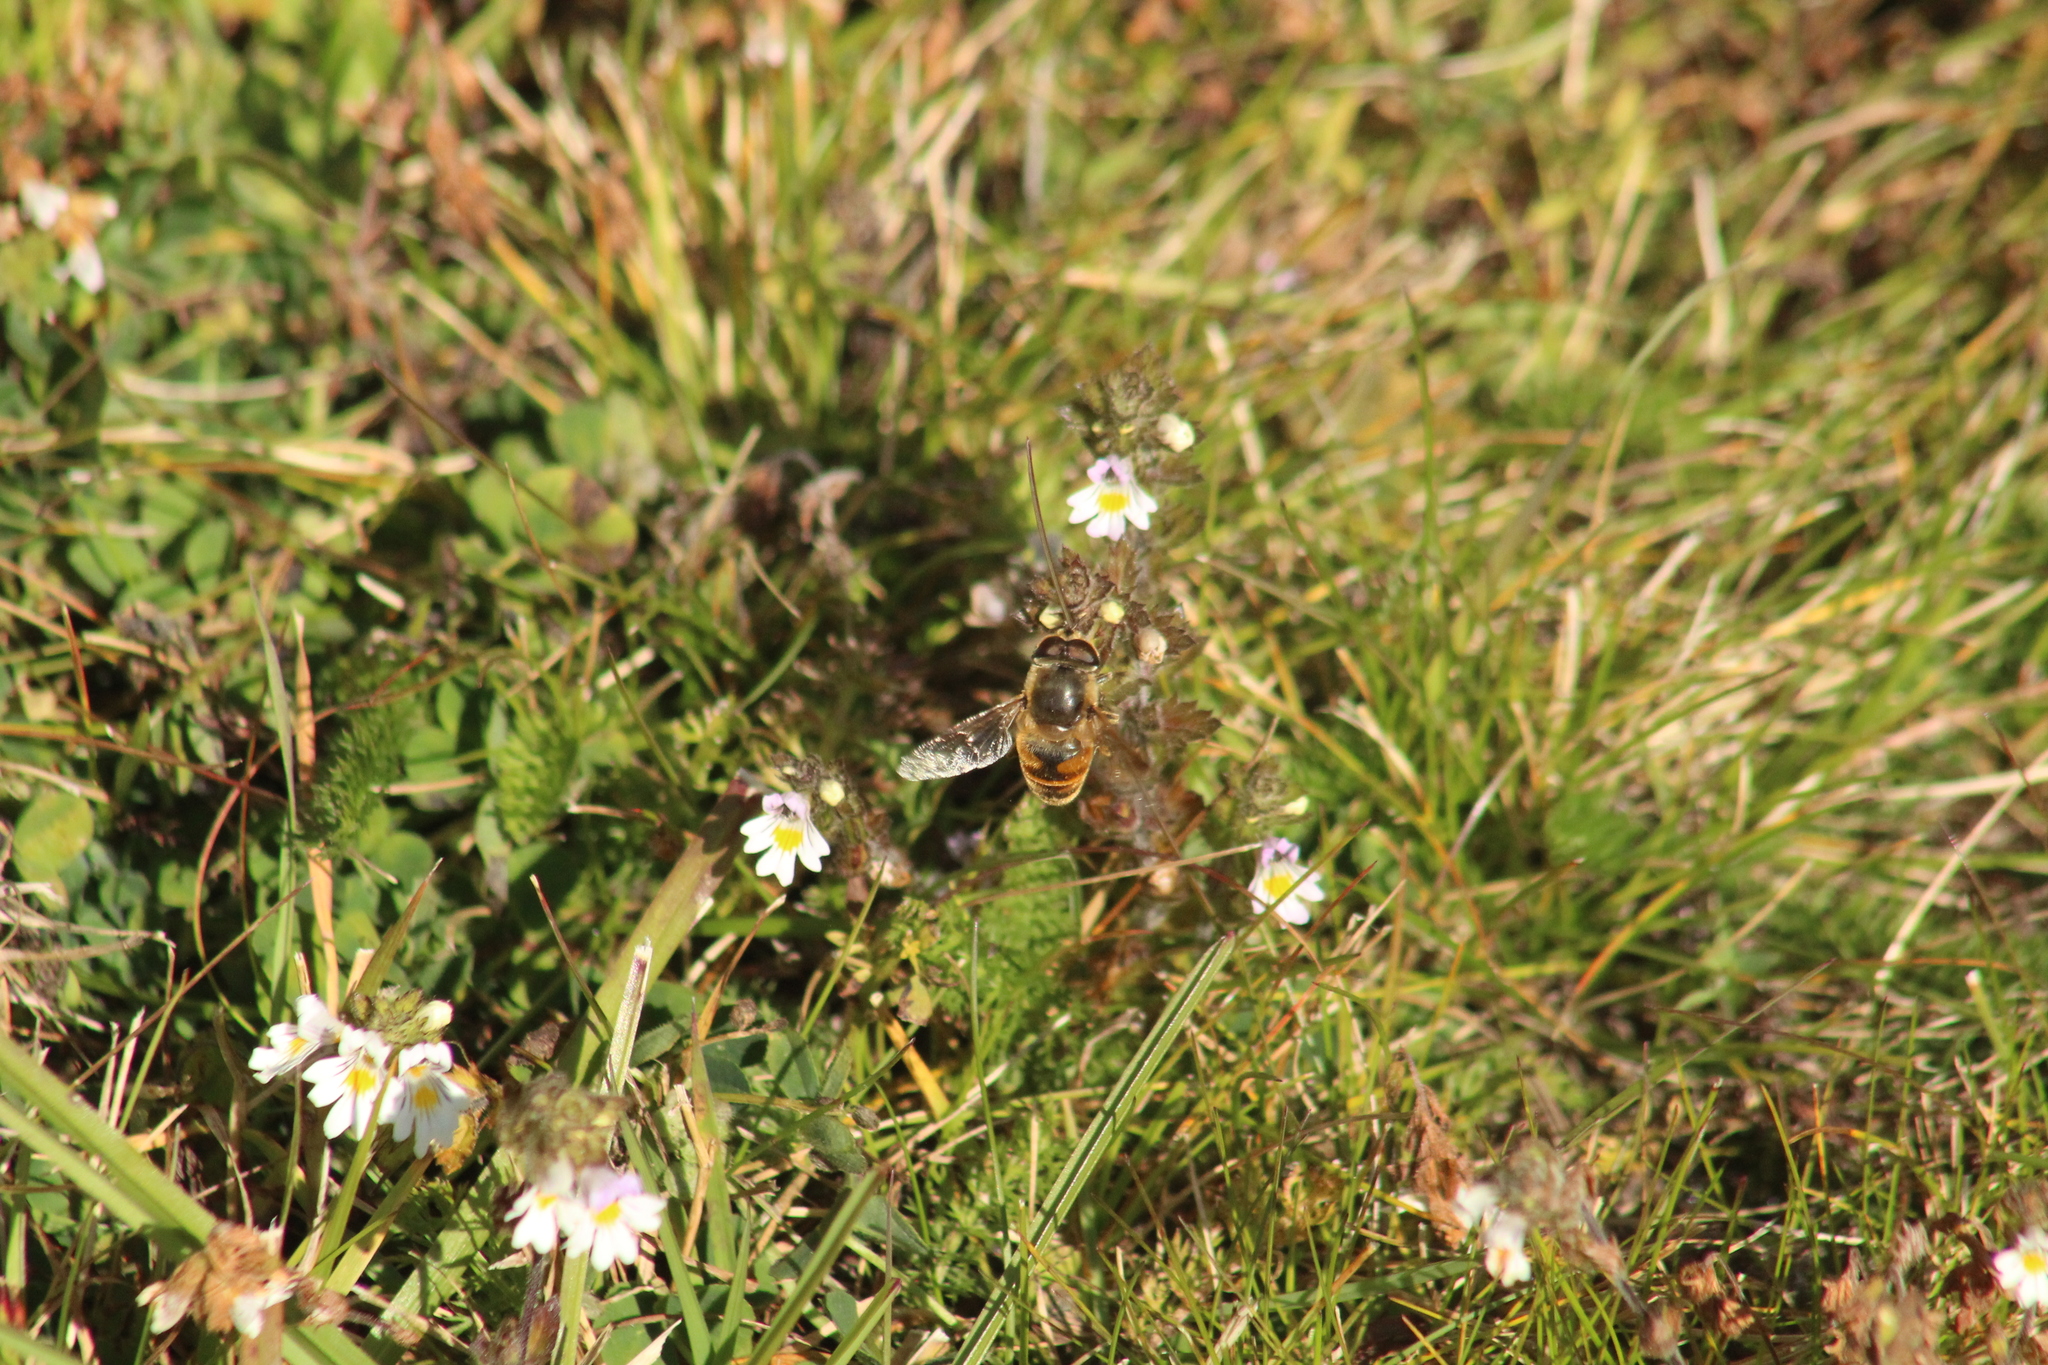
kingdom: Animalia
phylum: Arthropoda
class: Insecta
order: Diptera
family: Syrphidae
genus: Eristalis
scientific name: Eristalis tenax
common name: Drone fly
